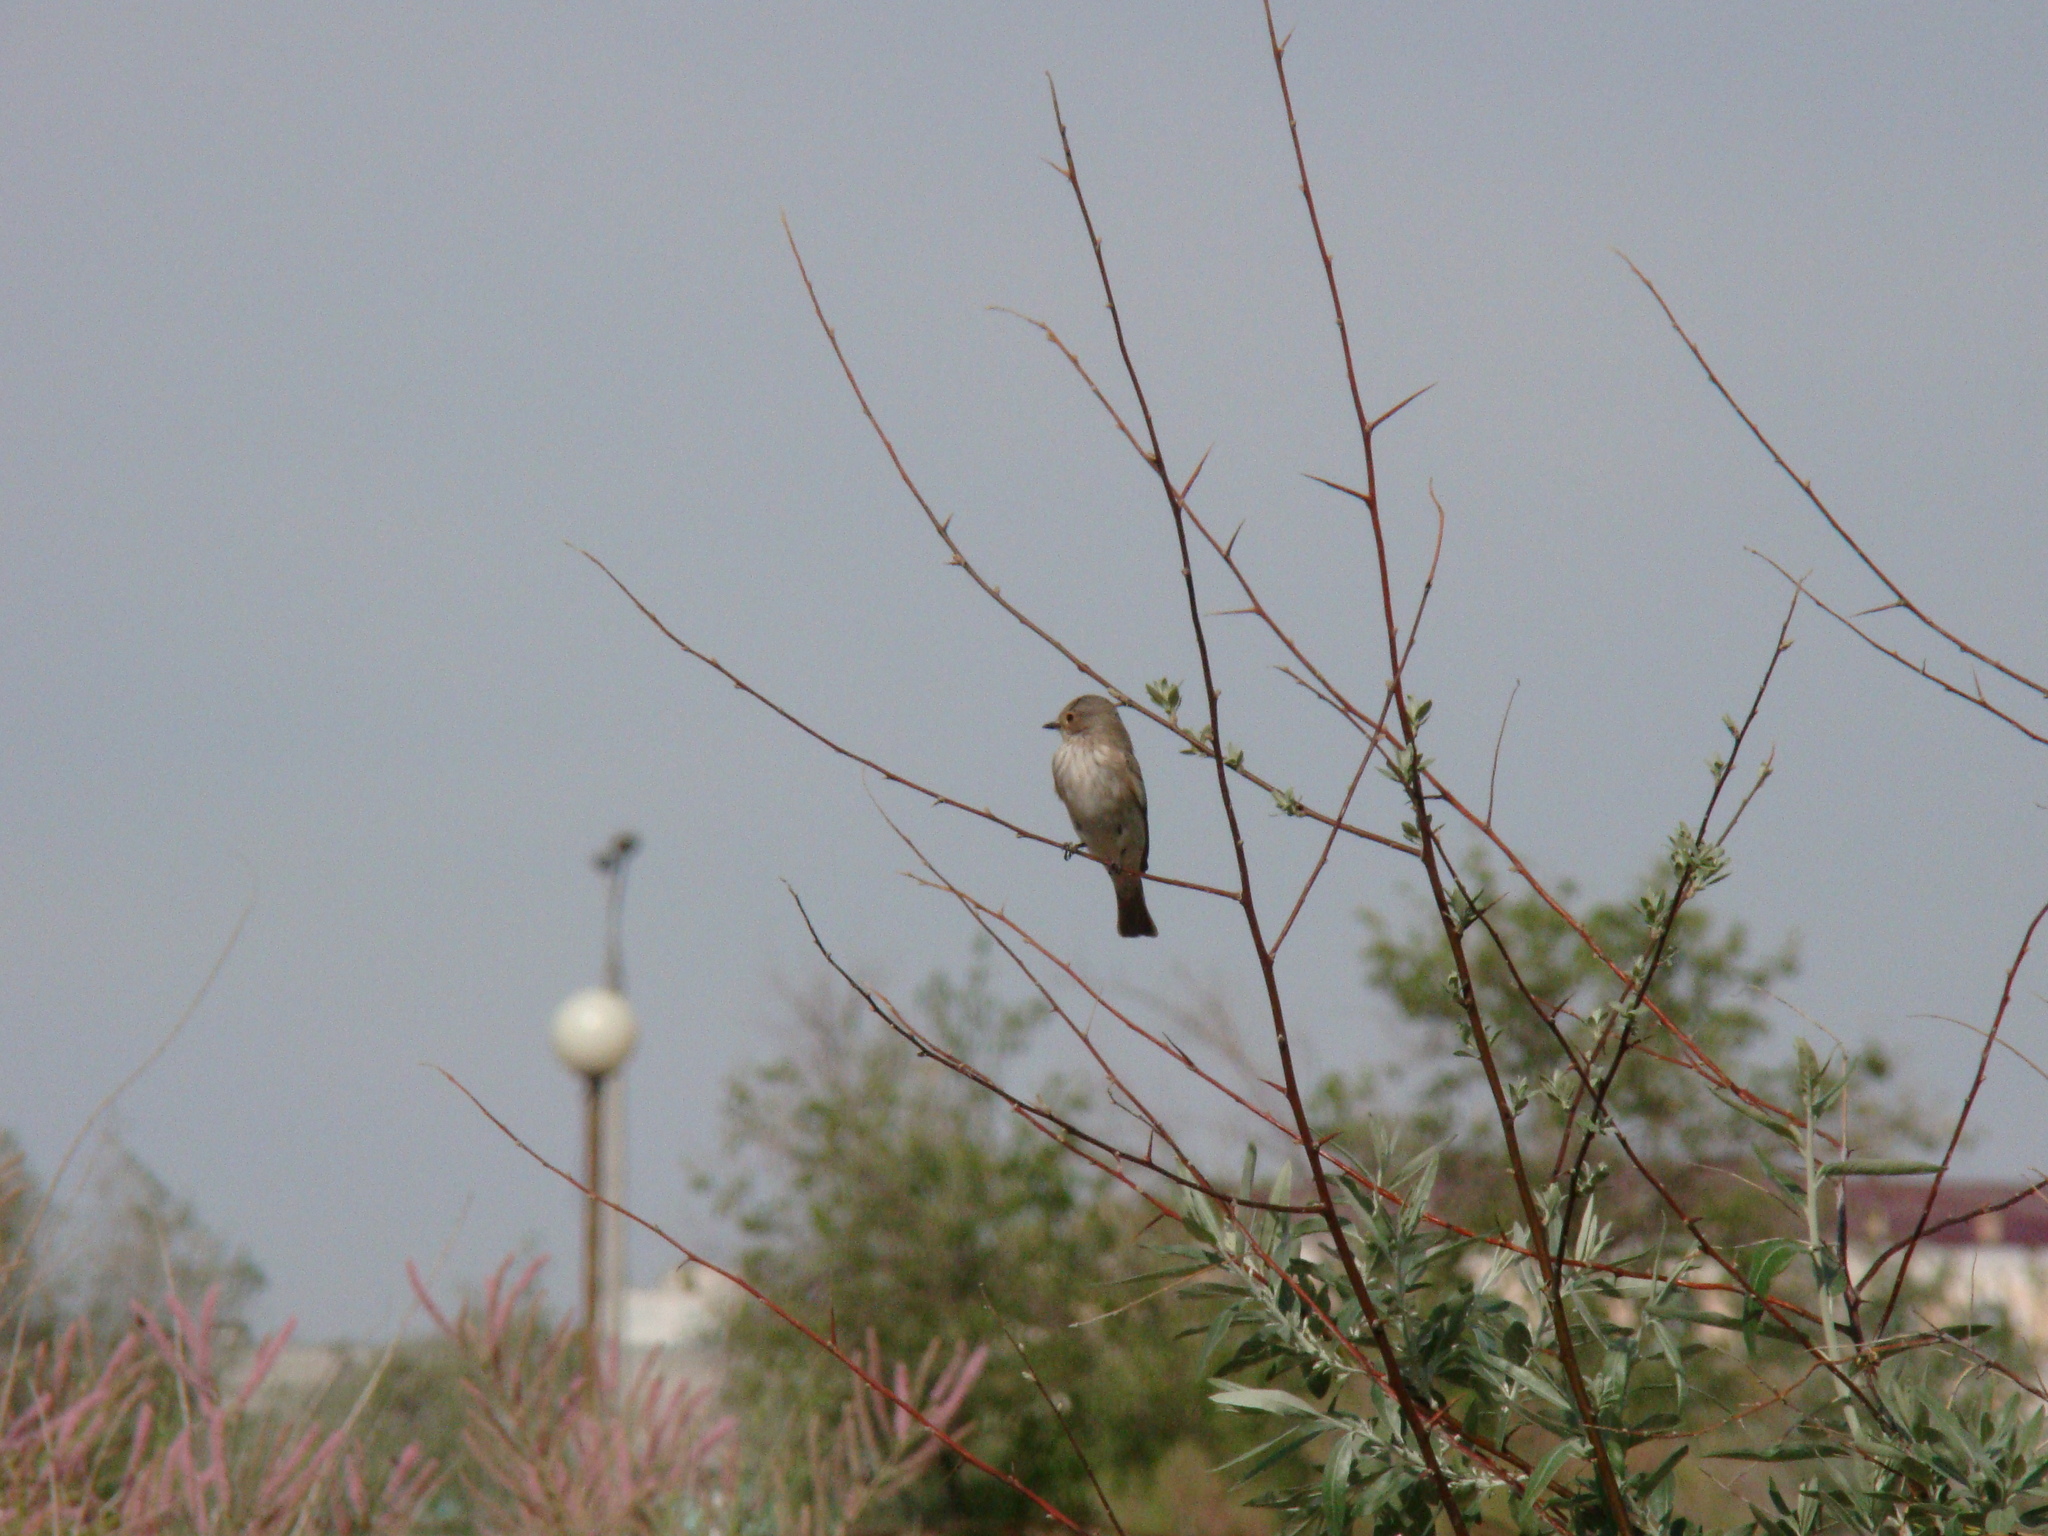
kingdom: Animalia
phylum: Chordata
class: Aves
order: Passeriformes
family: Muscicapidae
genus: Muscicapa
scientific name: Muscicapa striata
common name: Spotted flycatcher
